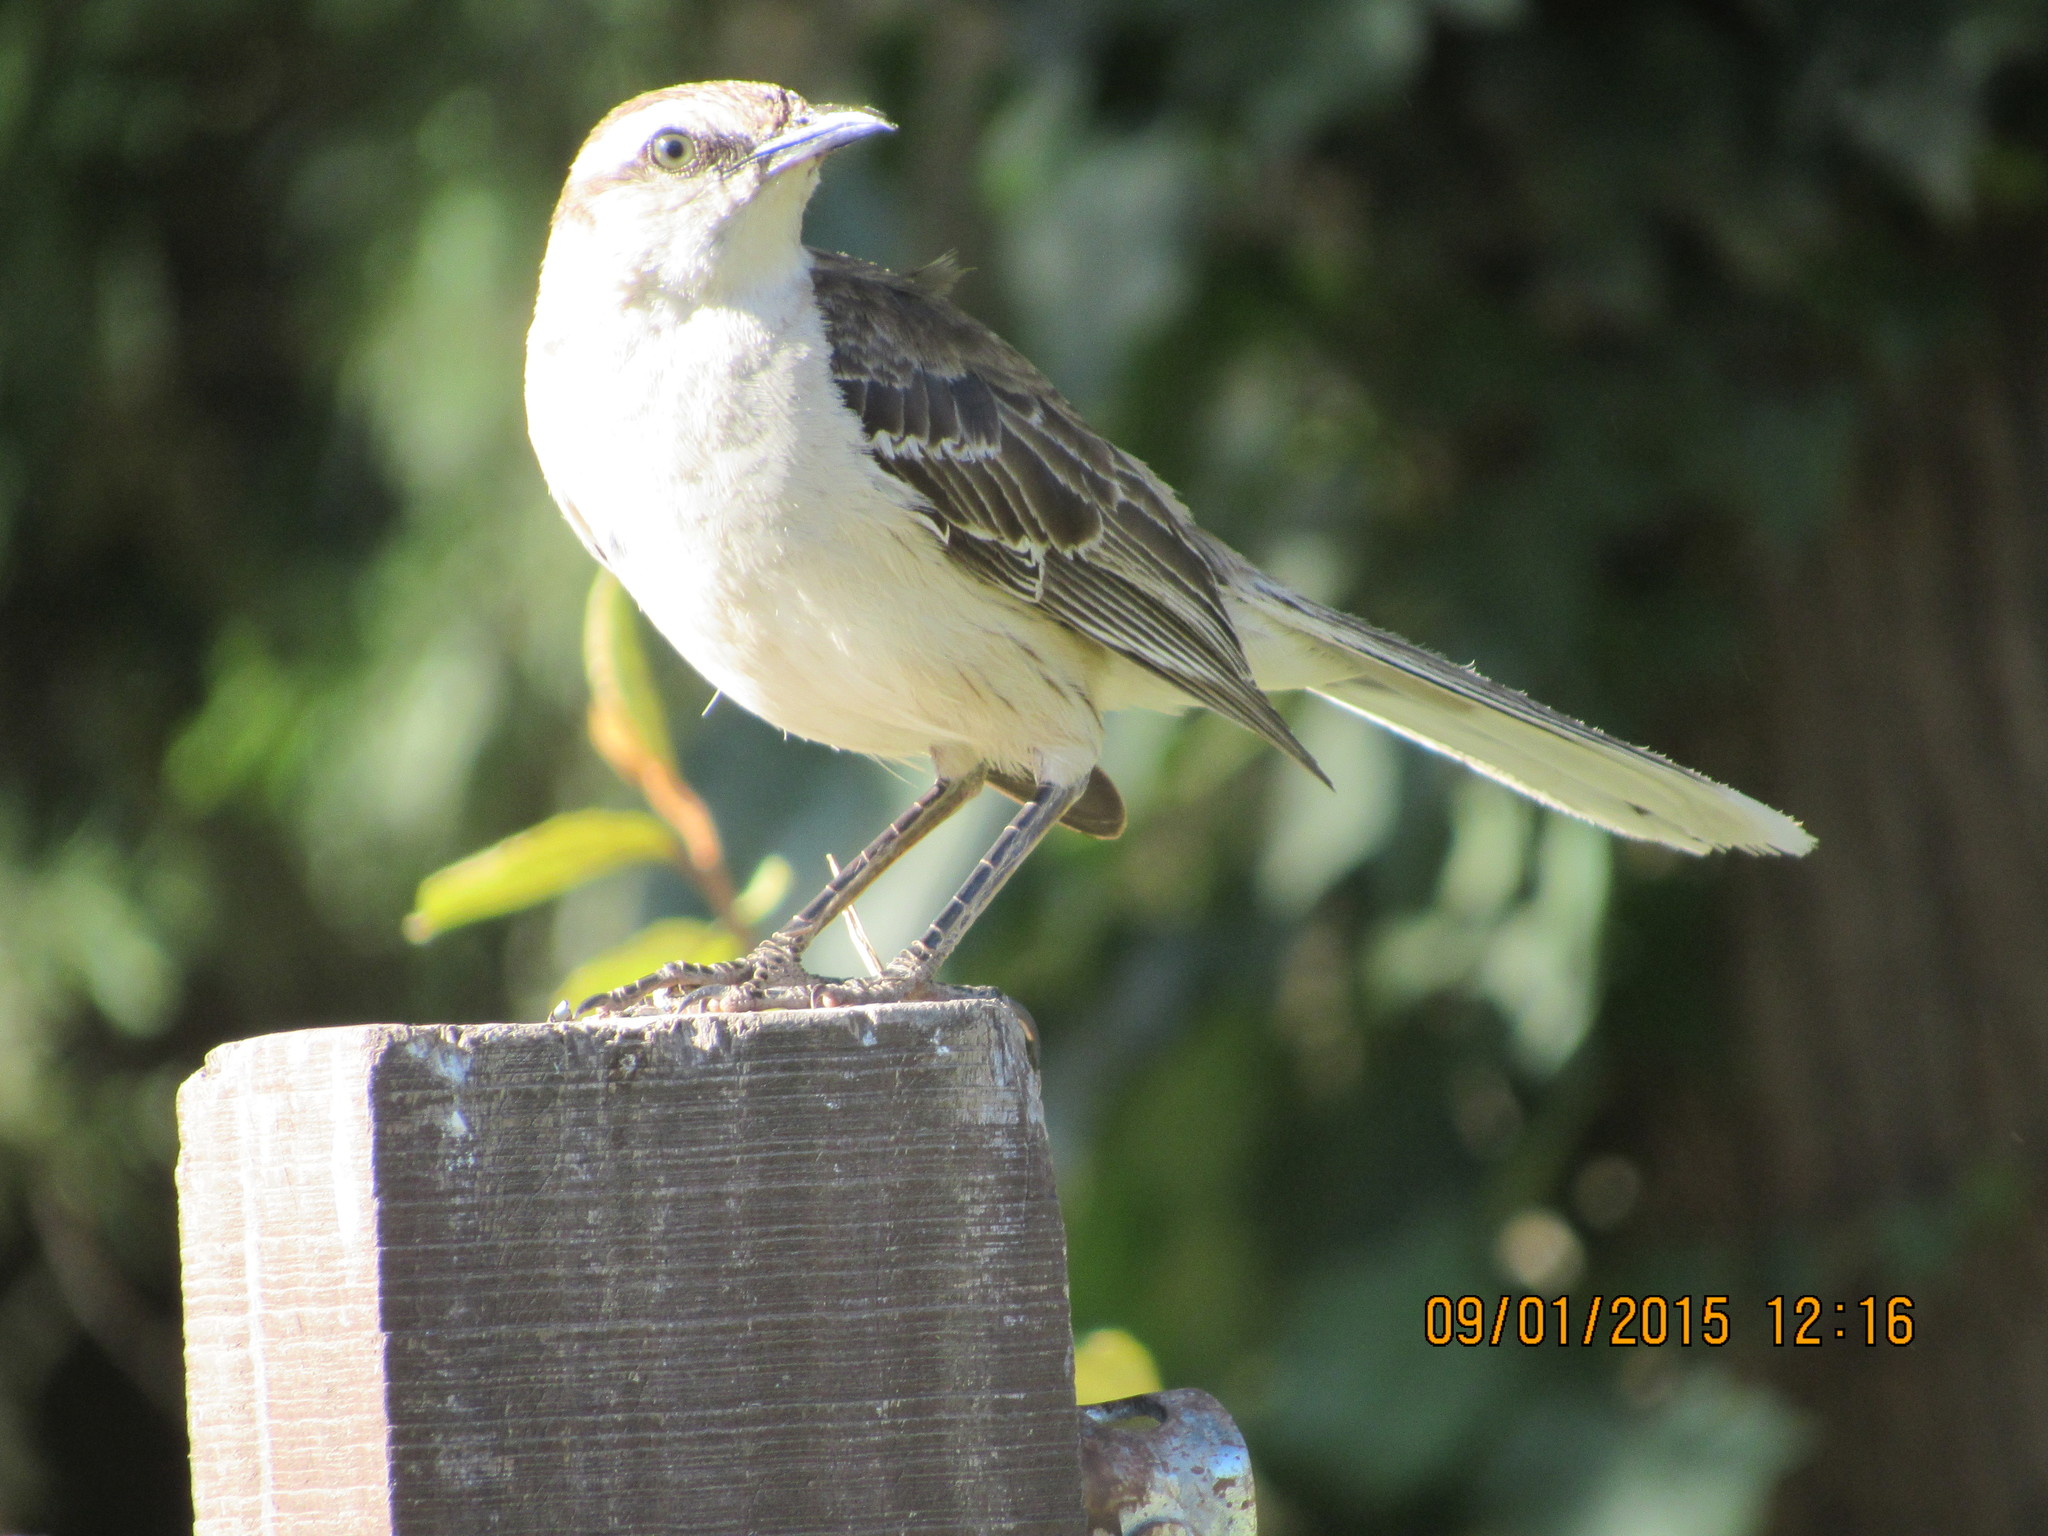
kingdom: Animalia
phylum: Chordata
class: Aves
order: Passeriformes
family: Mimidae
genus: Mimus
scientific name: Mimus saturninus
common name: Chalk-browed mockingbird
